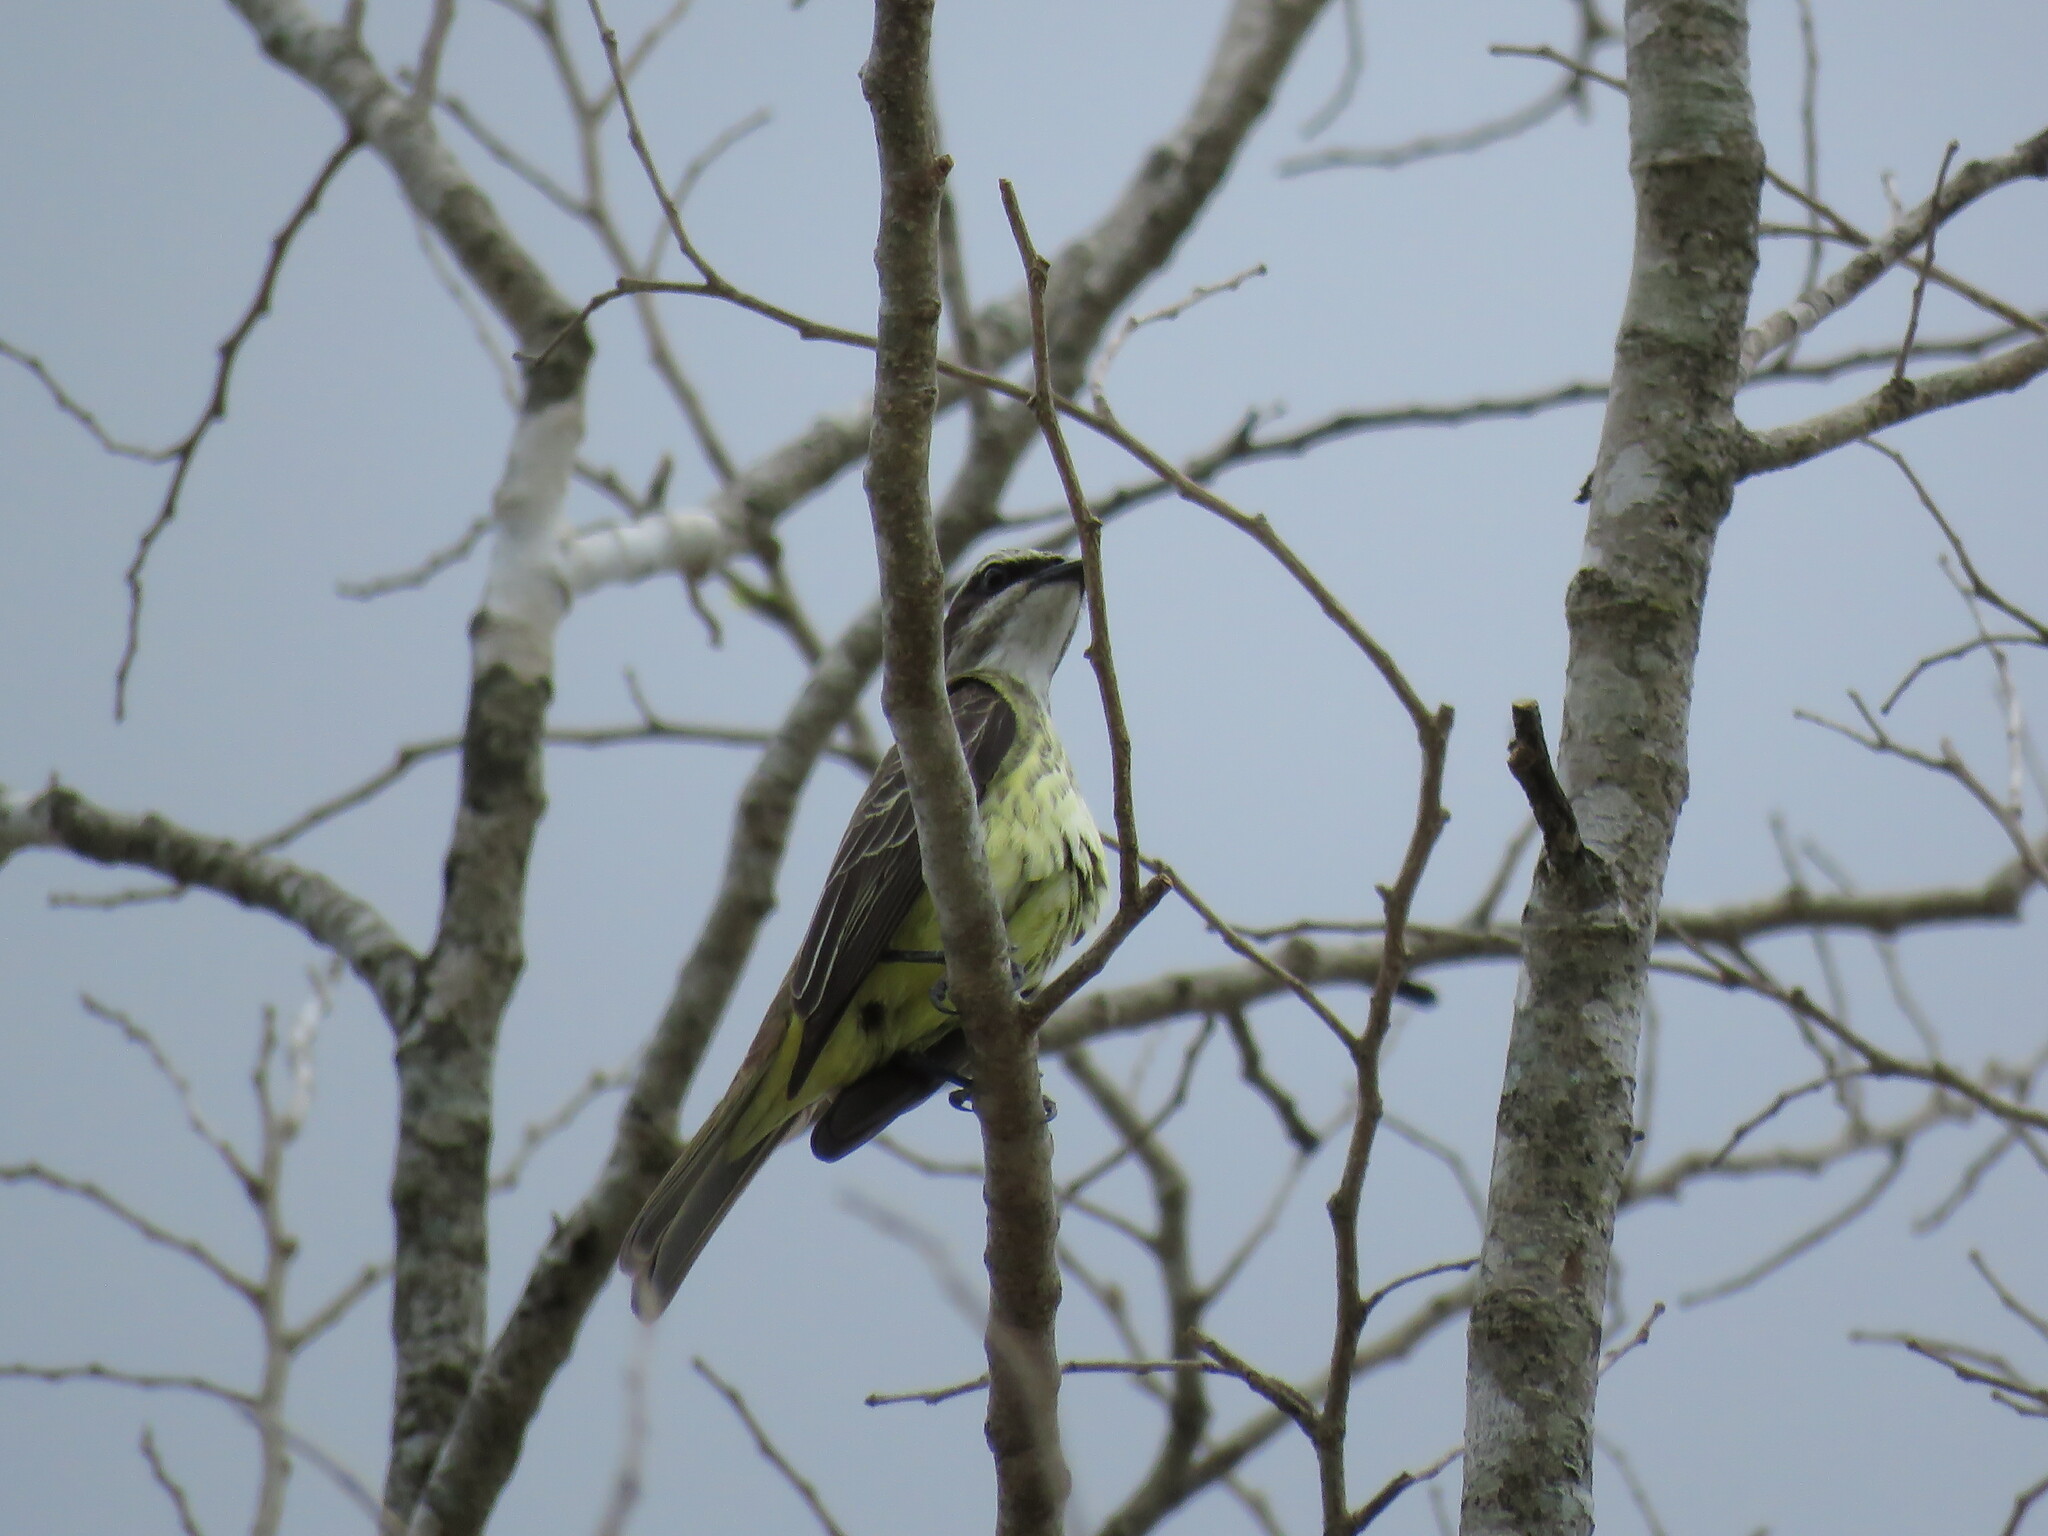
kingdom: Animalia
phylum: Chordata
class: Aves
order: Passeriformes
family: Tyrannidae
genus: Legatus
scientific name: Legatus leucophaius
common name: Piratic flycatcher
